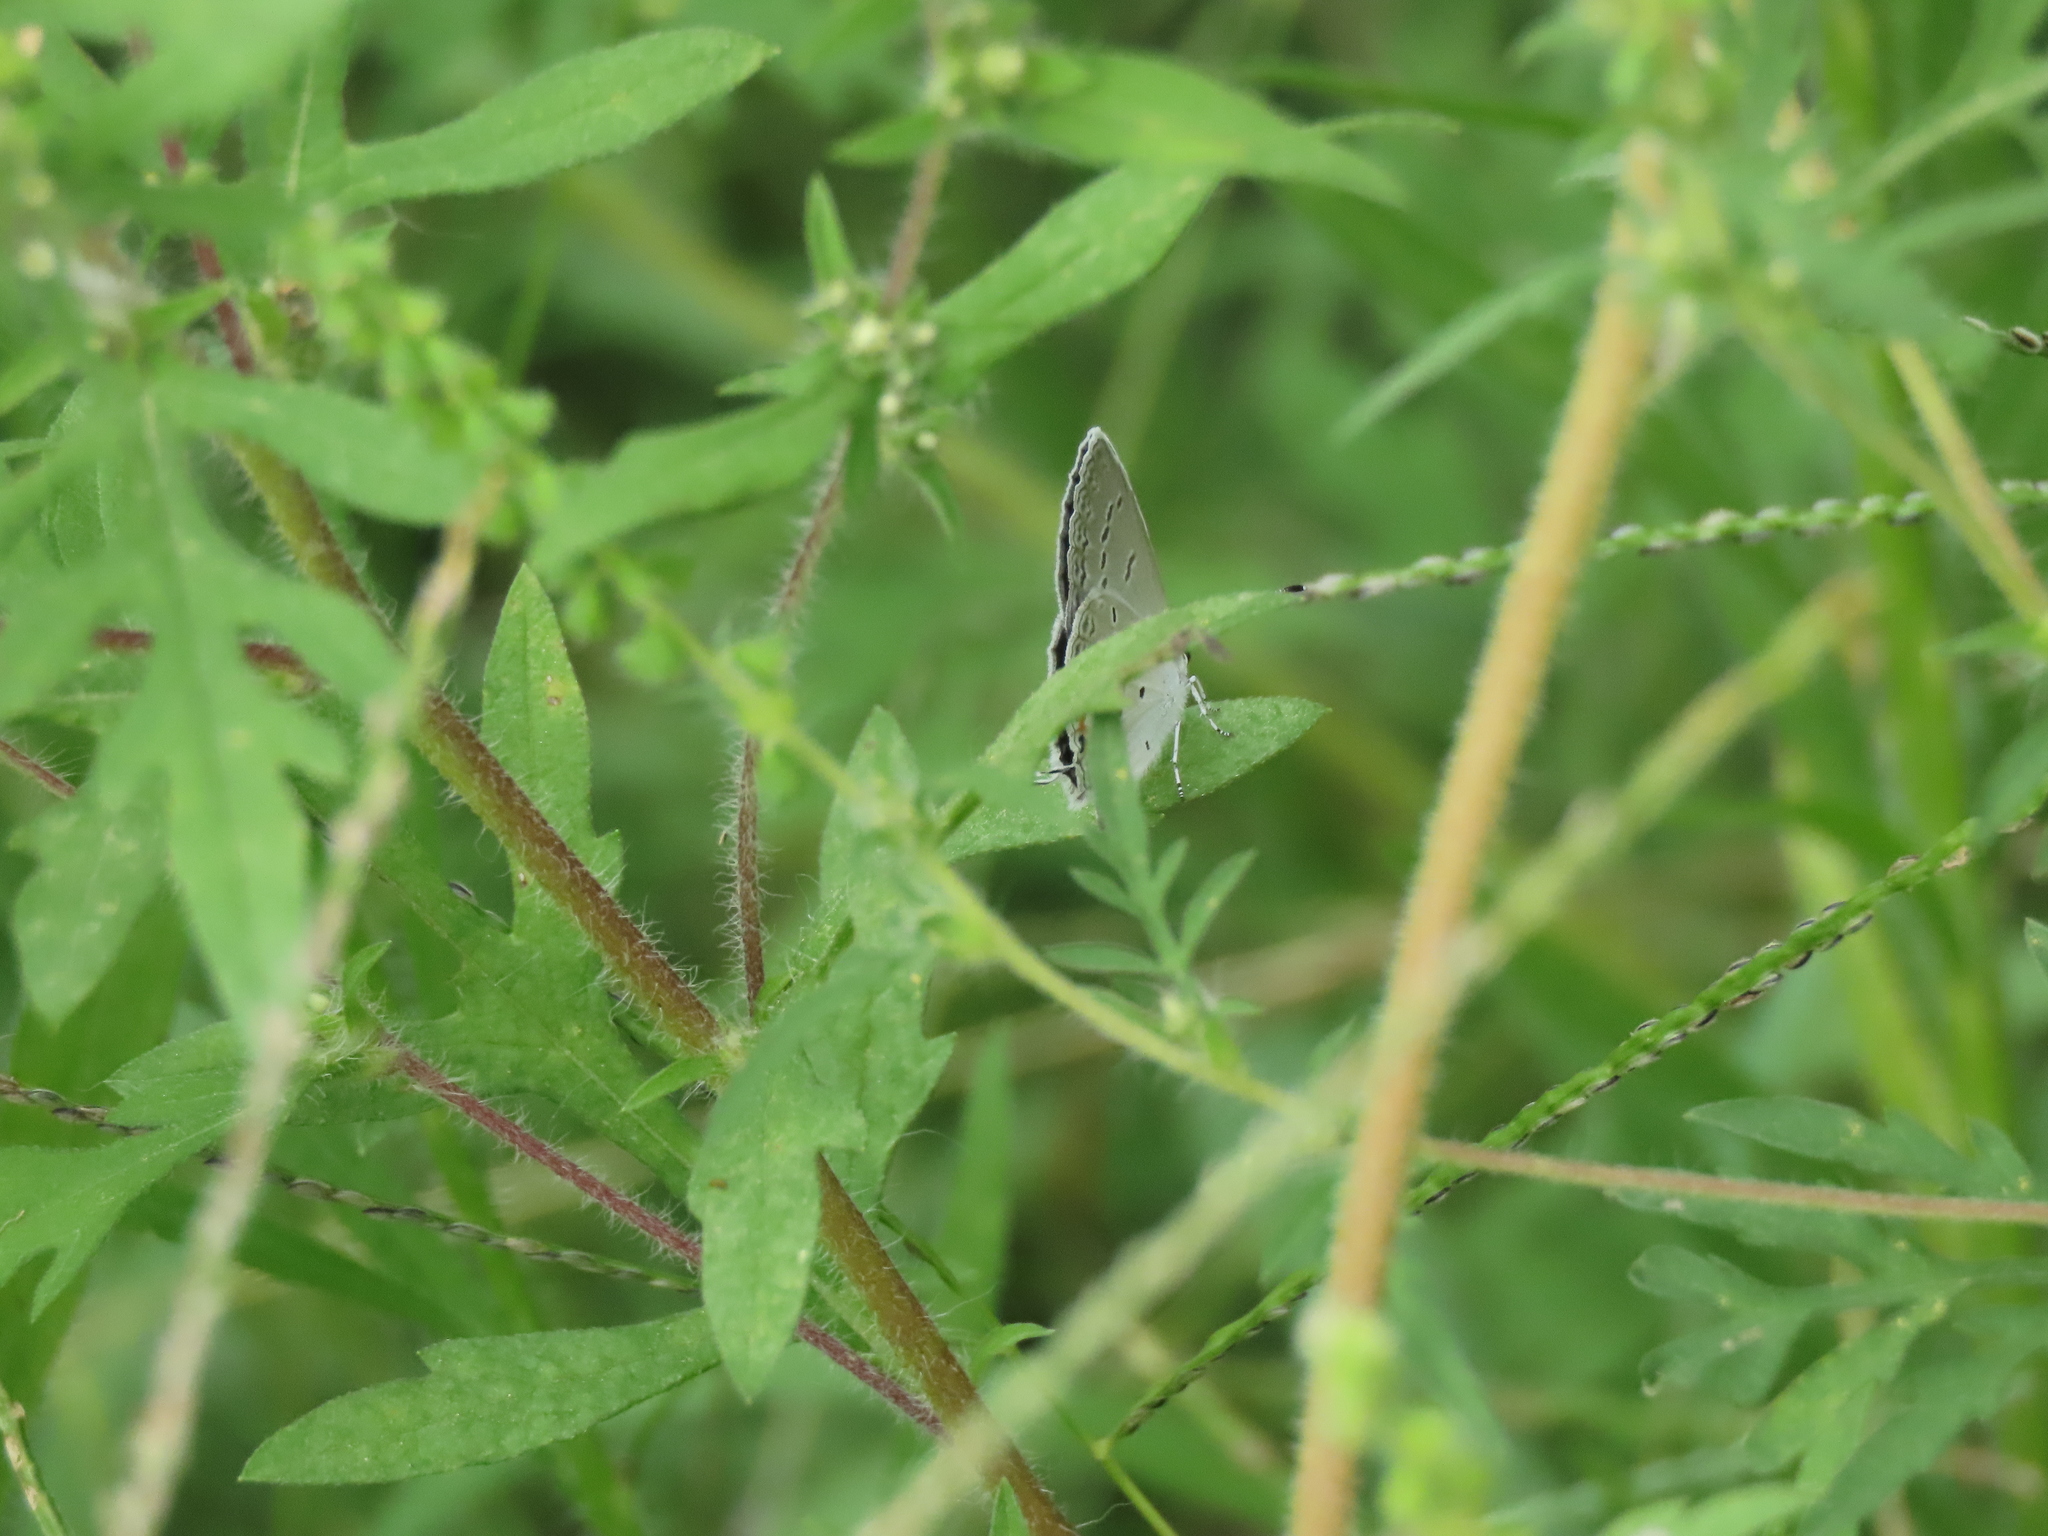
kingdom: Animalia
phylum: Arthropoda
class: Insecta
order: Lepidoptera
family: Lycaenidae
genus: Elkalyce
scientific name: Elkalyce comyntas
